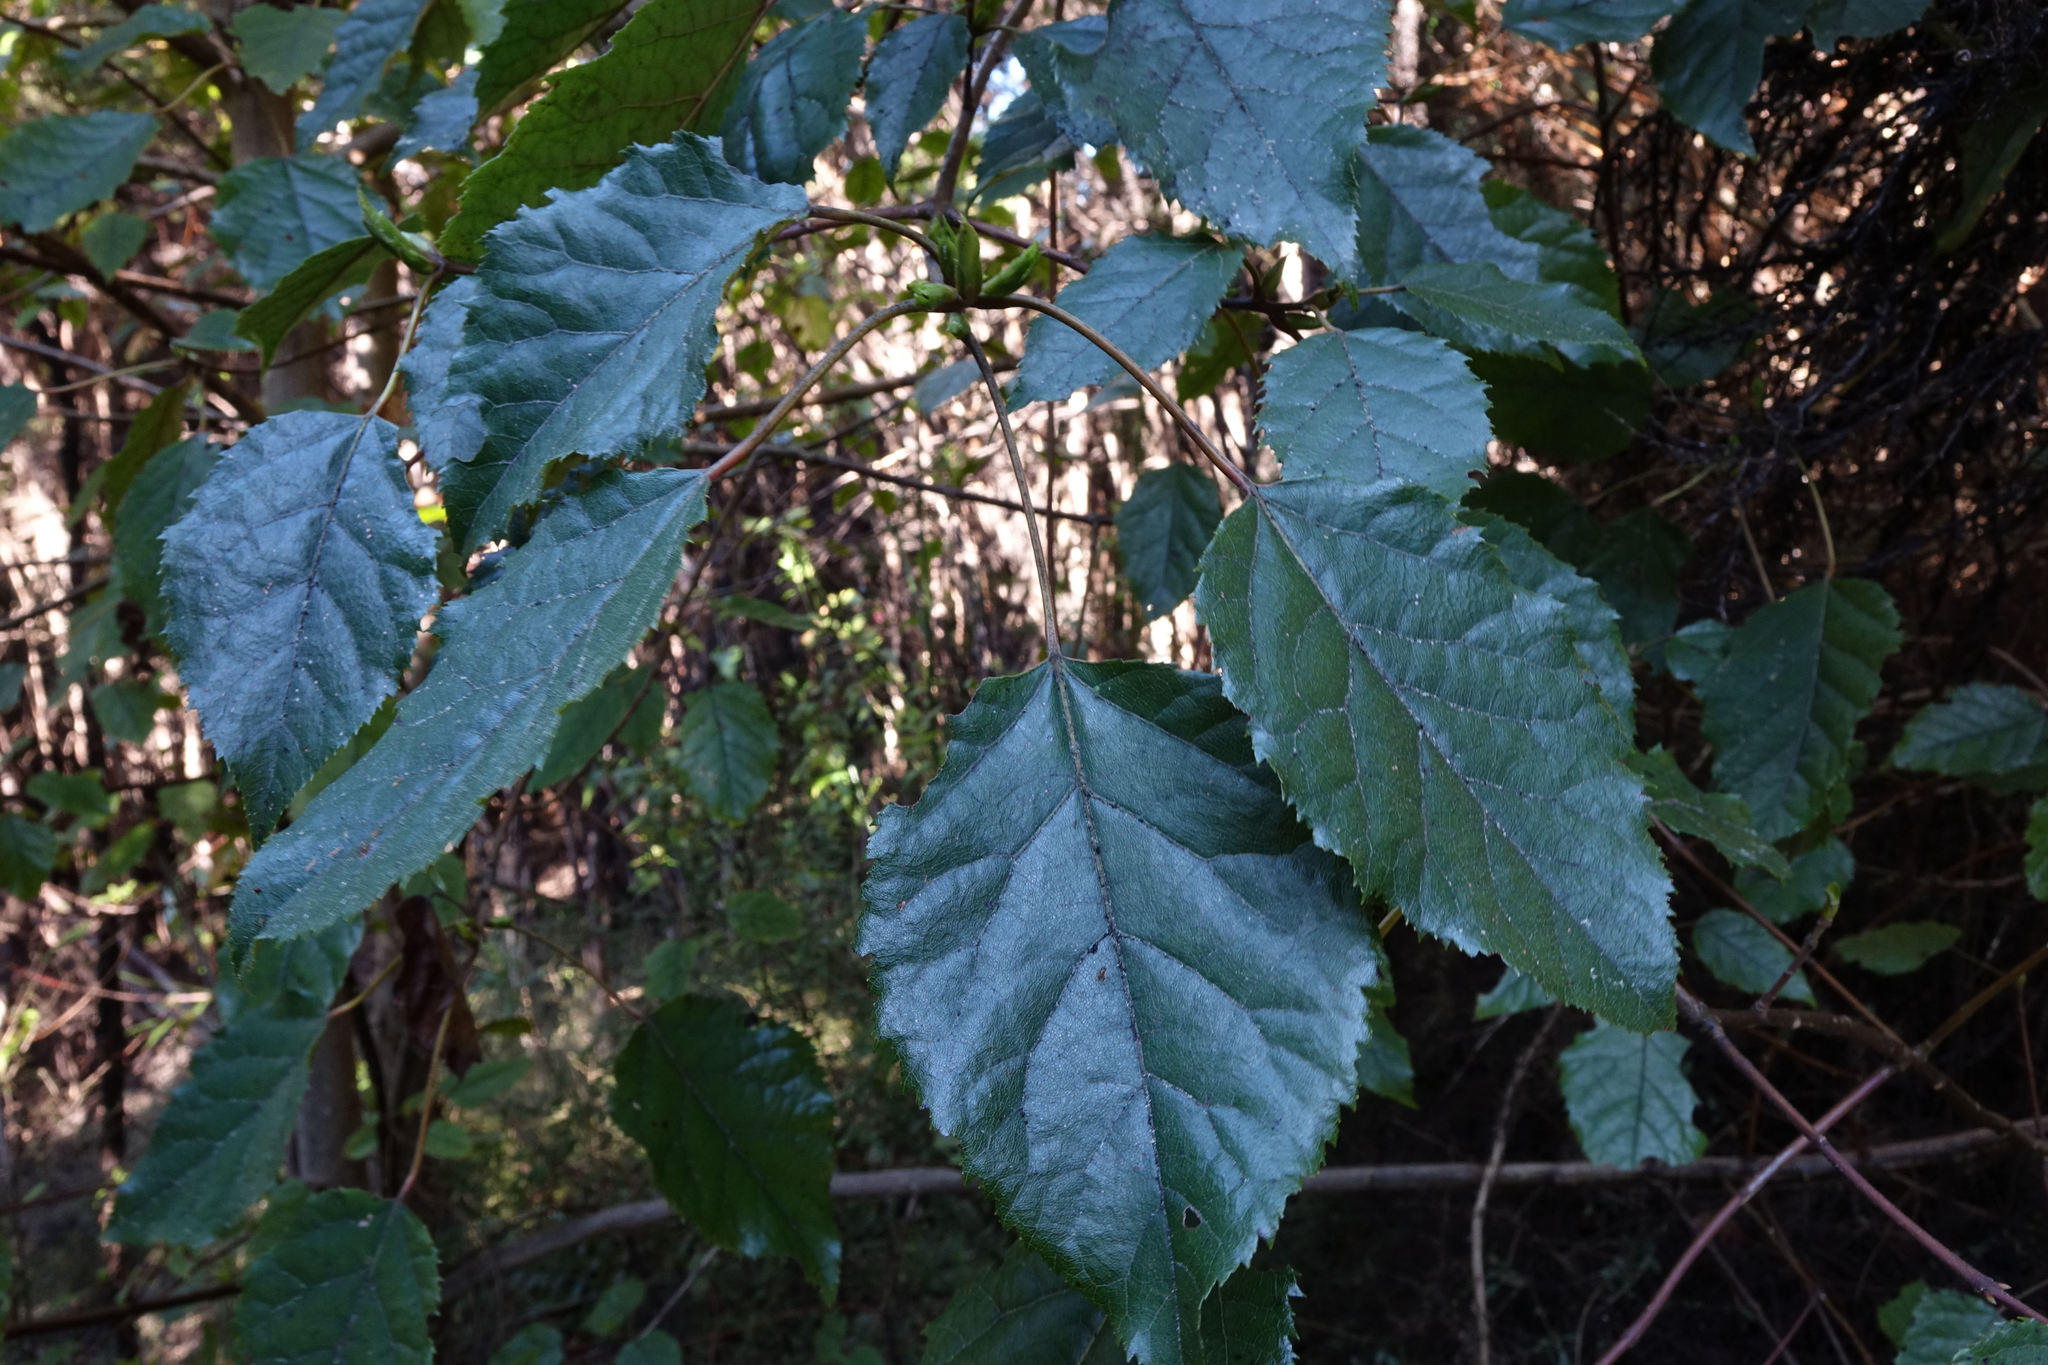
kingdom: Plantae
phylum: Tracheophyta
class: Magnoliopsida
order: Oxalidales
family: Elaeocarpaceae
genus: Aristotelia
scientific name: Aristotelia serrata
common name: New zealand wineberry
